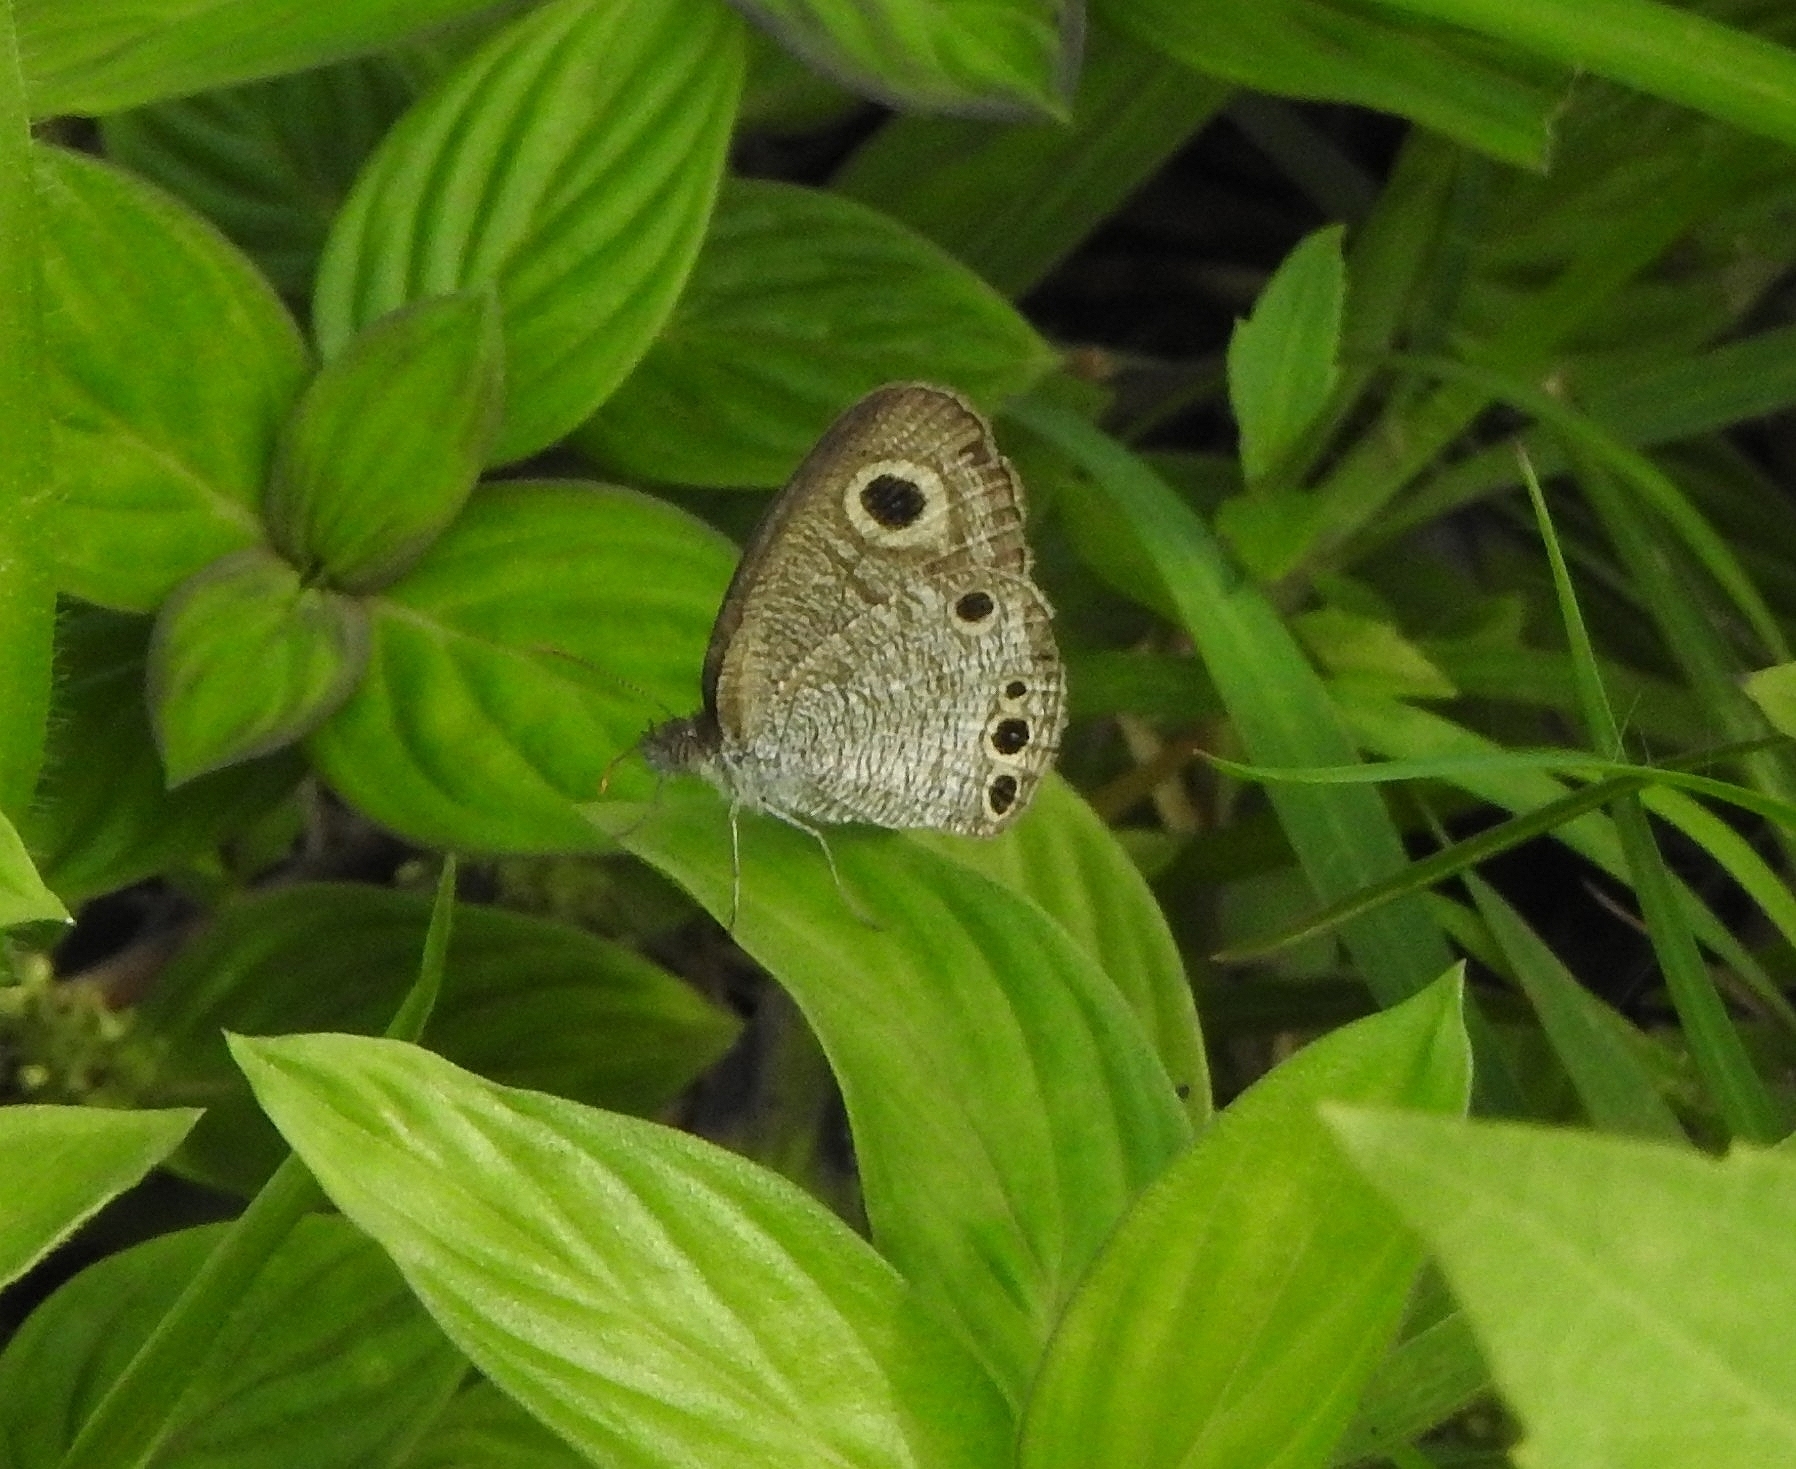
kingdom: Animalia
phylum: Arthropoda
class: Insecta
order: Lepidoptera
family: Nymphalidae
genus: Ypthima
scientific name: Ypthima huebneri
